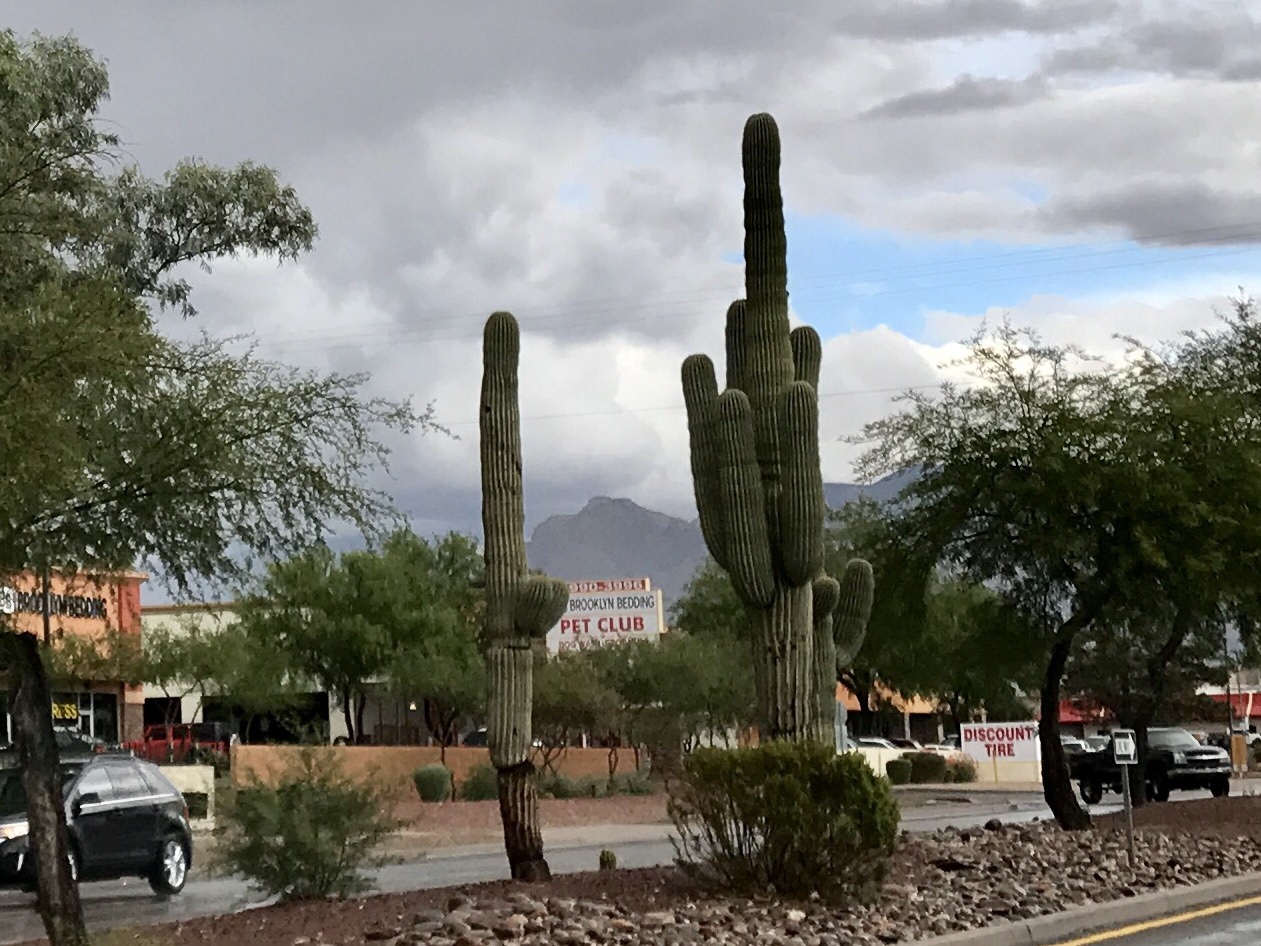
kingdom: Plantae
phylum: Tracheophyta
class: Magnoliopsida
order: Caryophyllales
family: Cactaceae
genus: Carnegiea
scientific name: Carnegiea gigantea
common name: Saguaro
